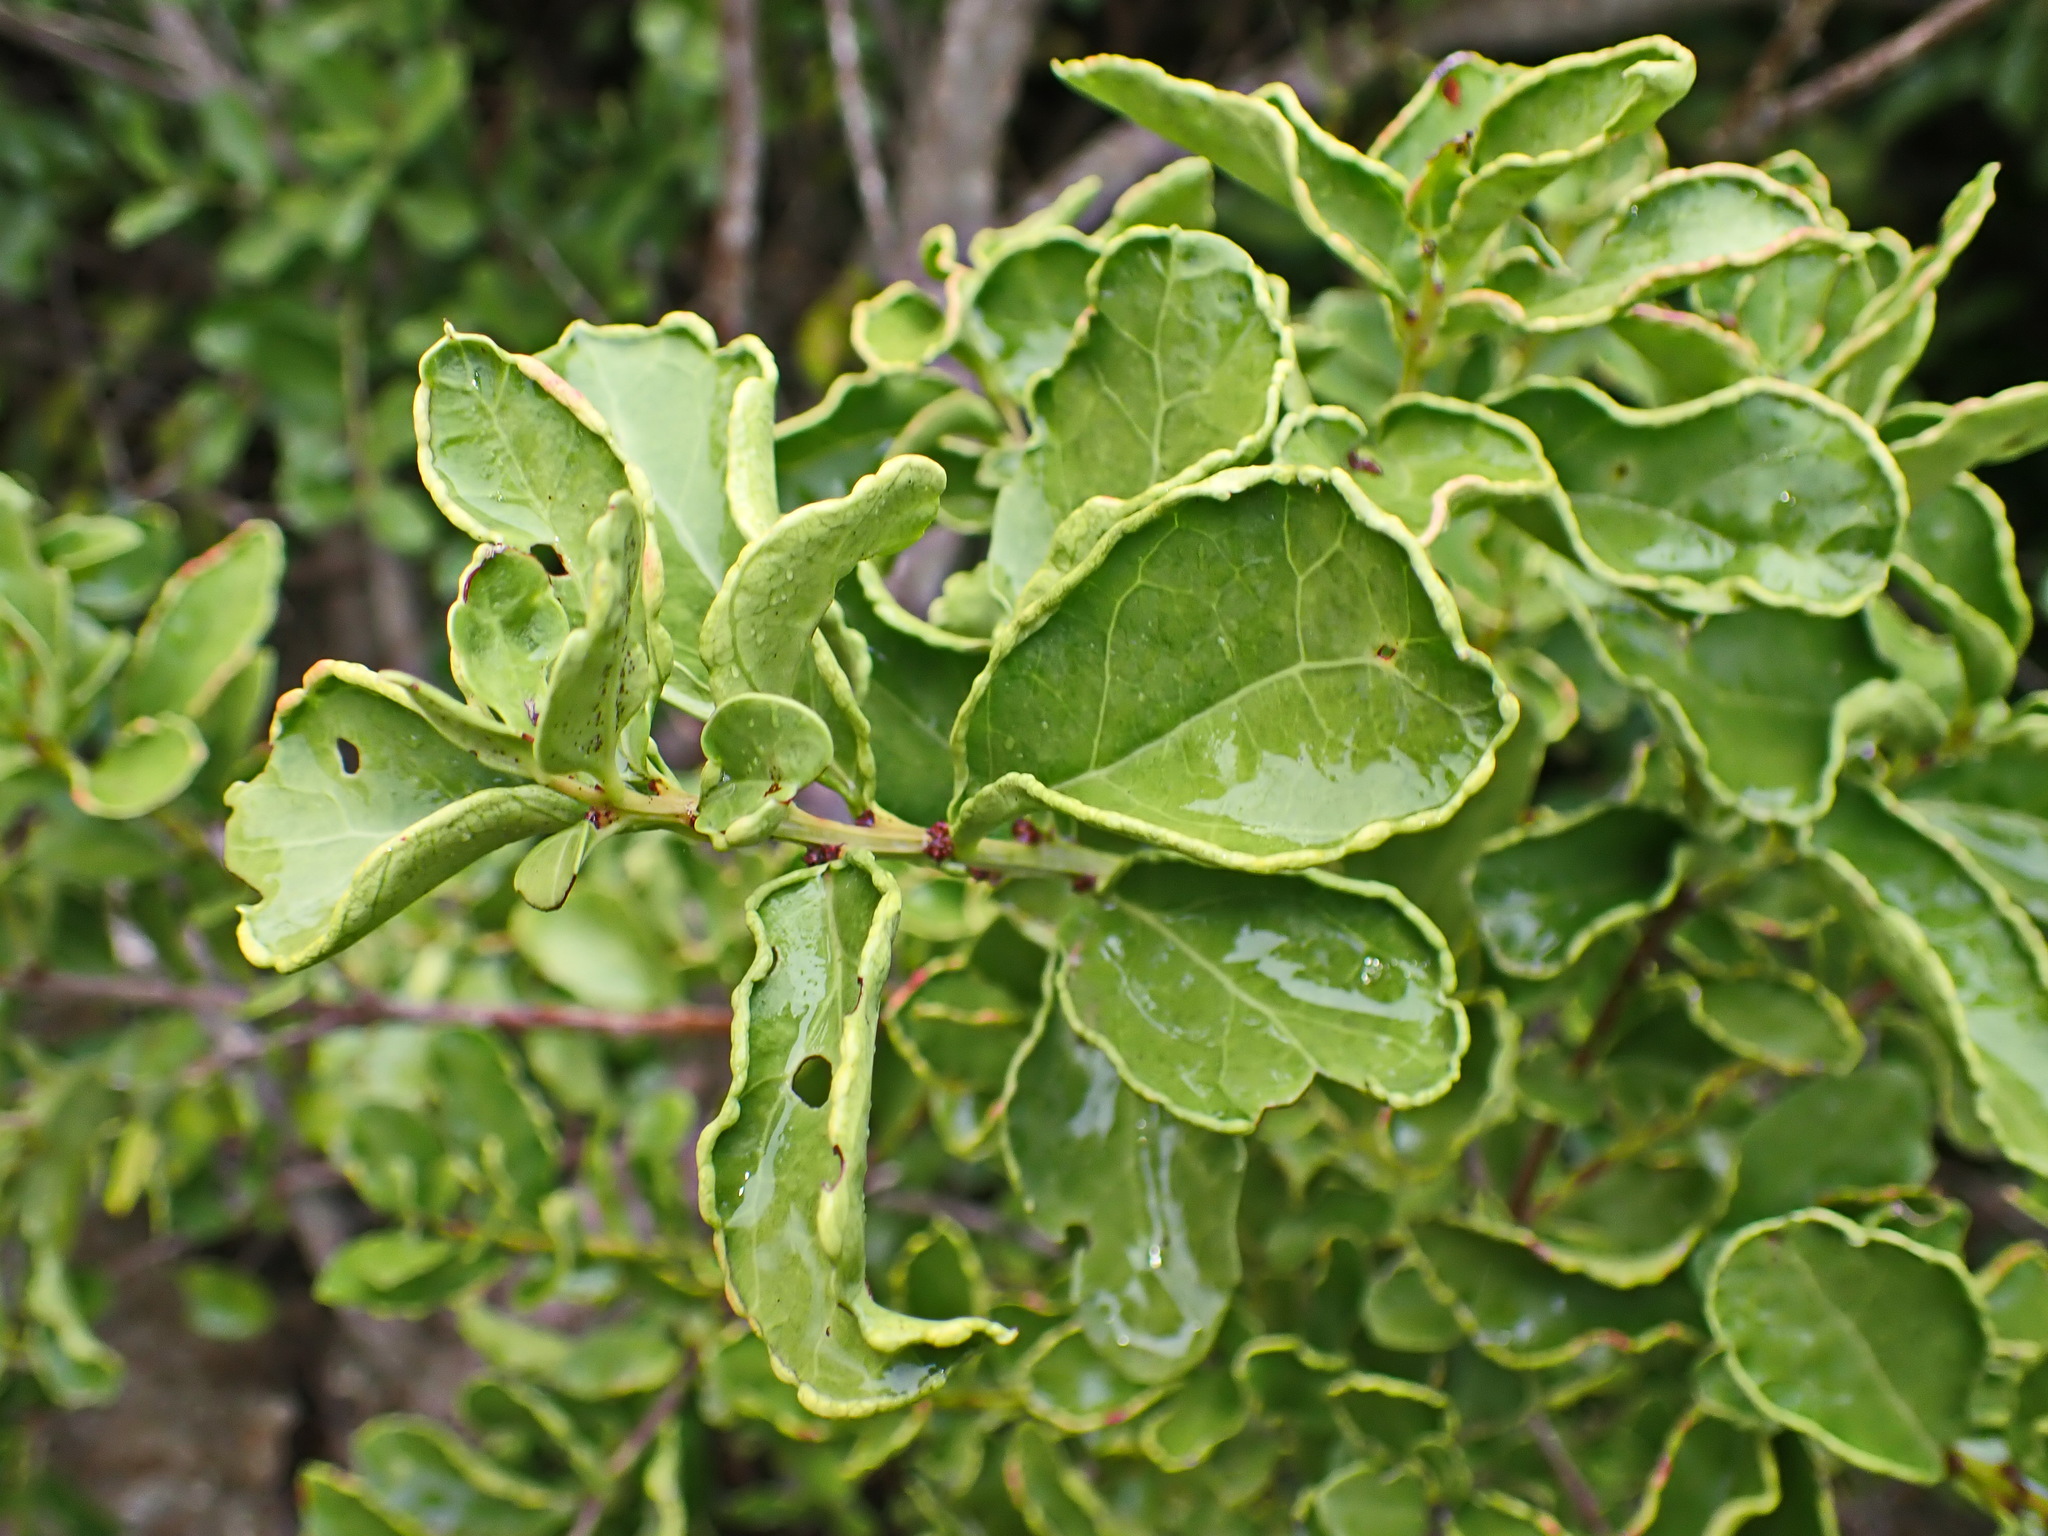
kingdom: Plantae
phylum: Tracheophyta
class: Magnoliopsida
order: Celastrales
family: Celastraceae
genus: Gymnosporia
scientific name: Gymnosporia procumbens
